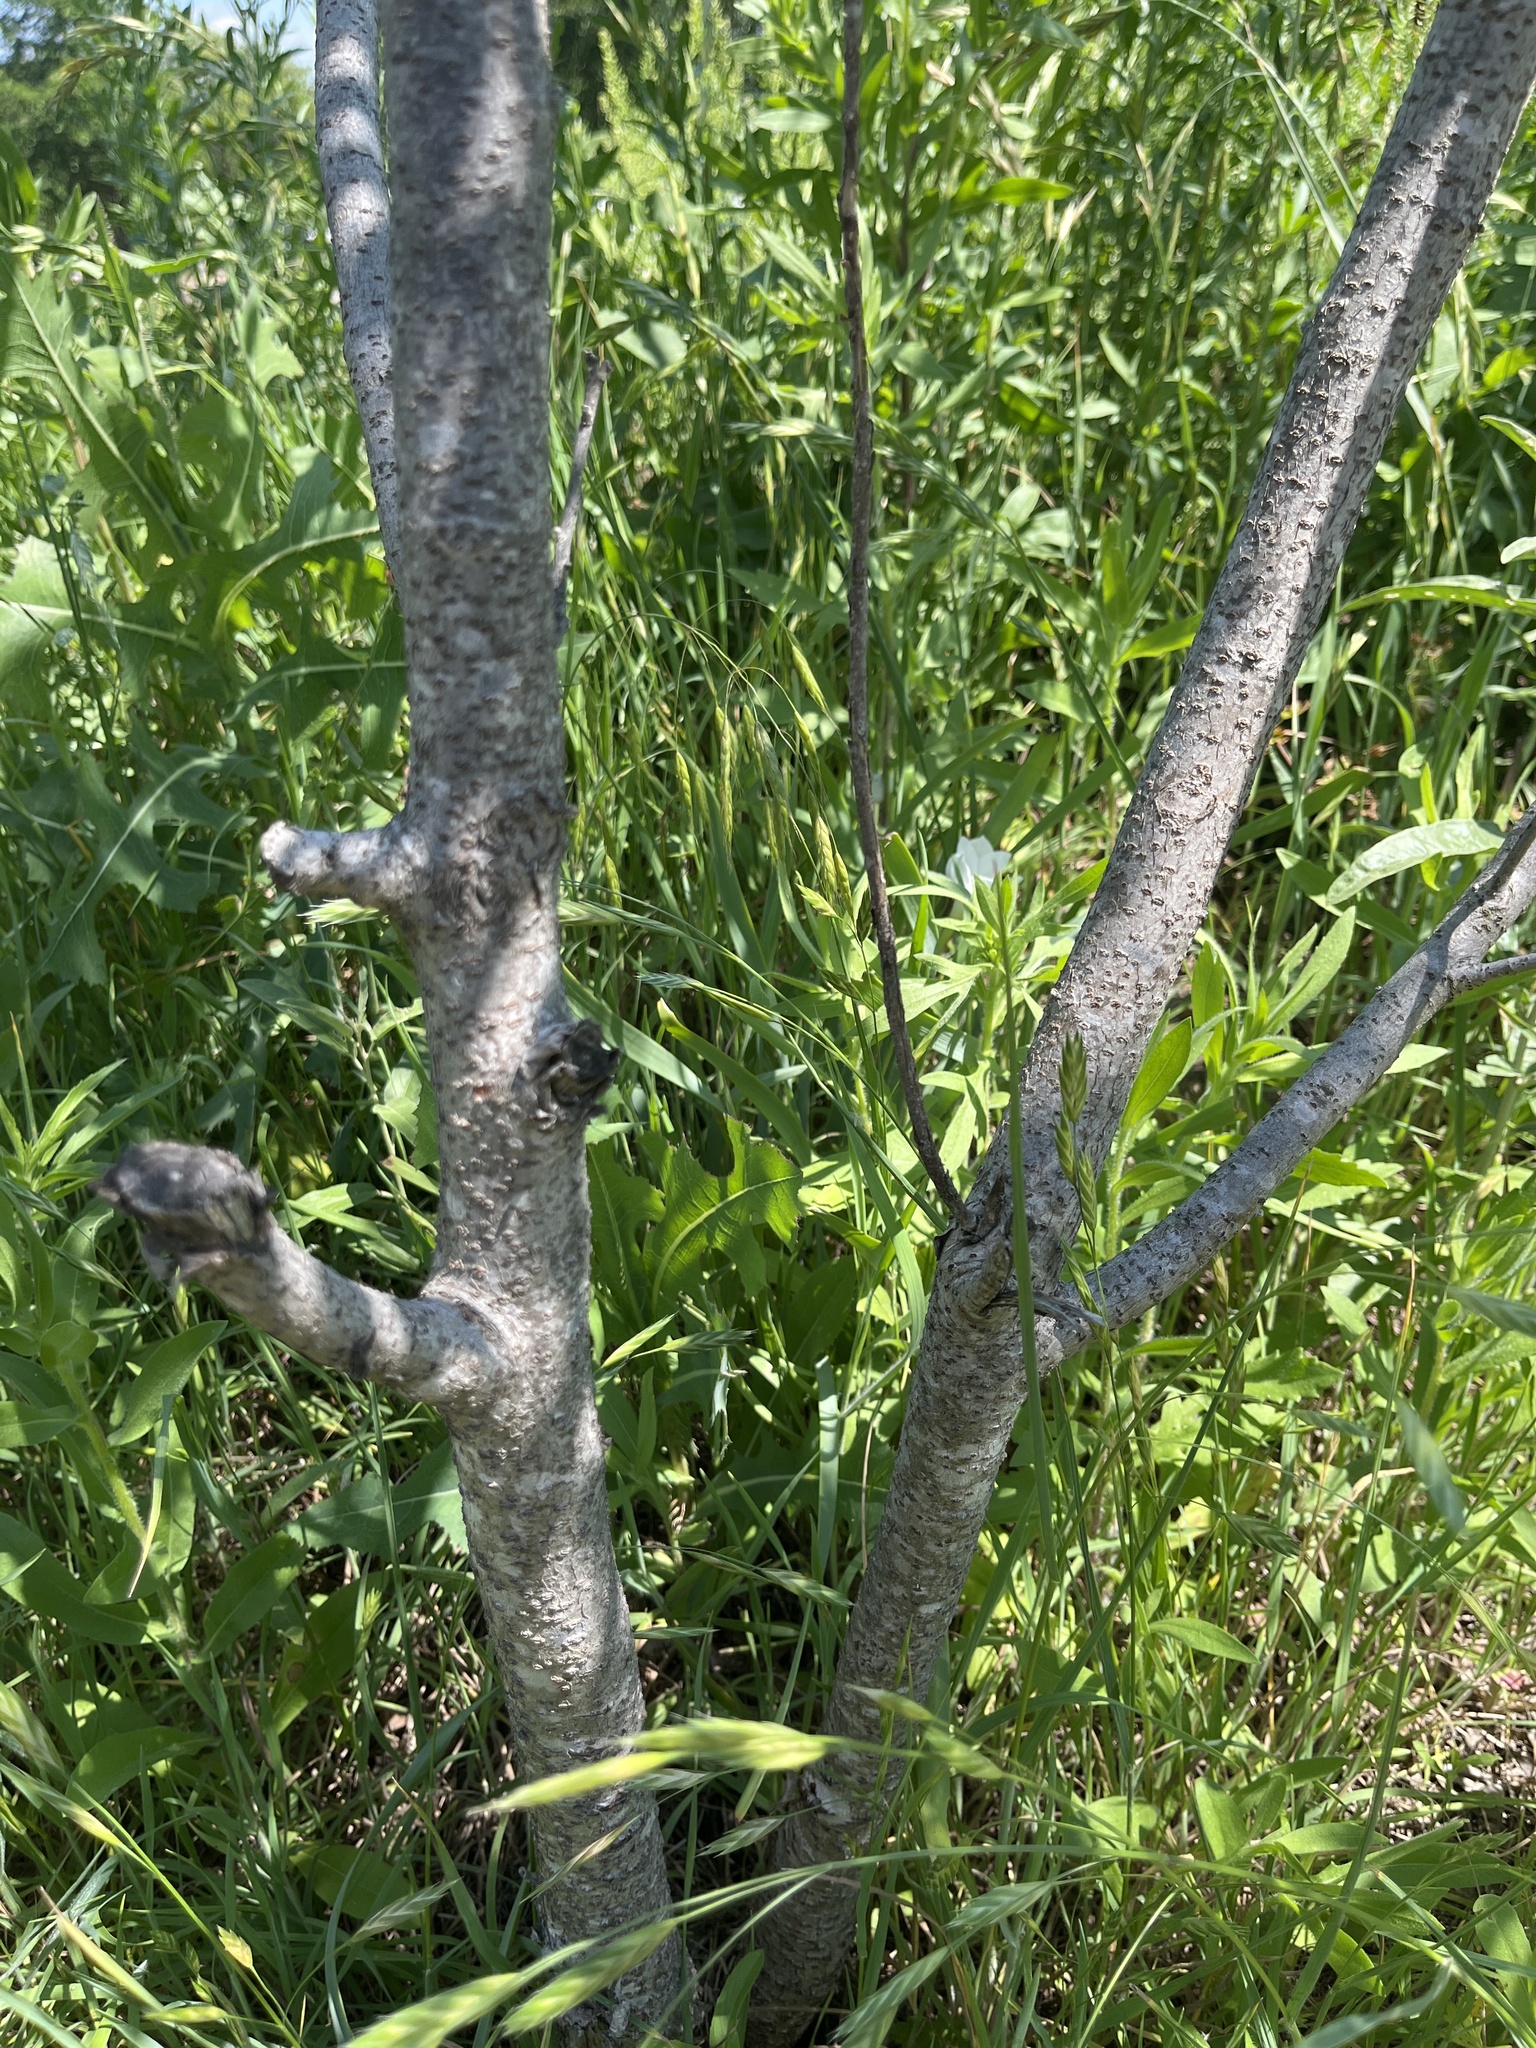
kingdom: Plantae
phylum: Tracheophyta
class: Magnoliopsida
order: Sapindales
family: Anacardiaceae
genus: Rhus
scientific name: Rhus lanceolata
